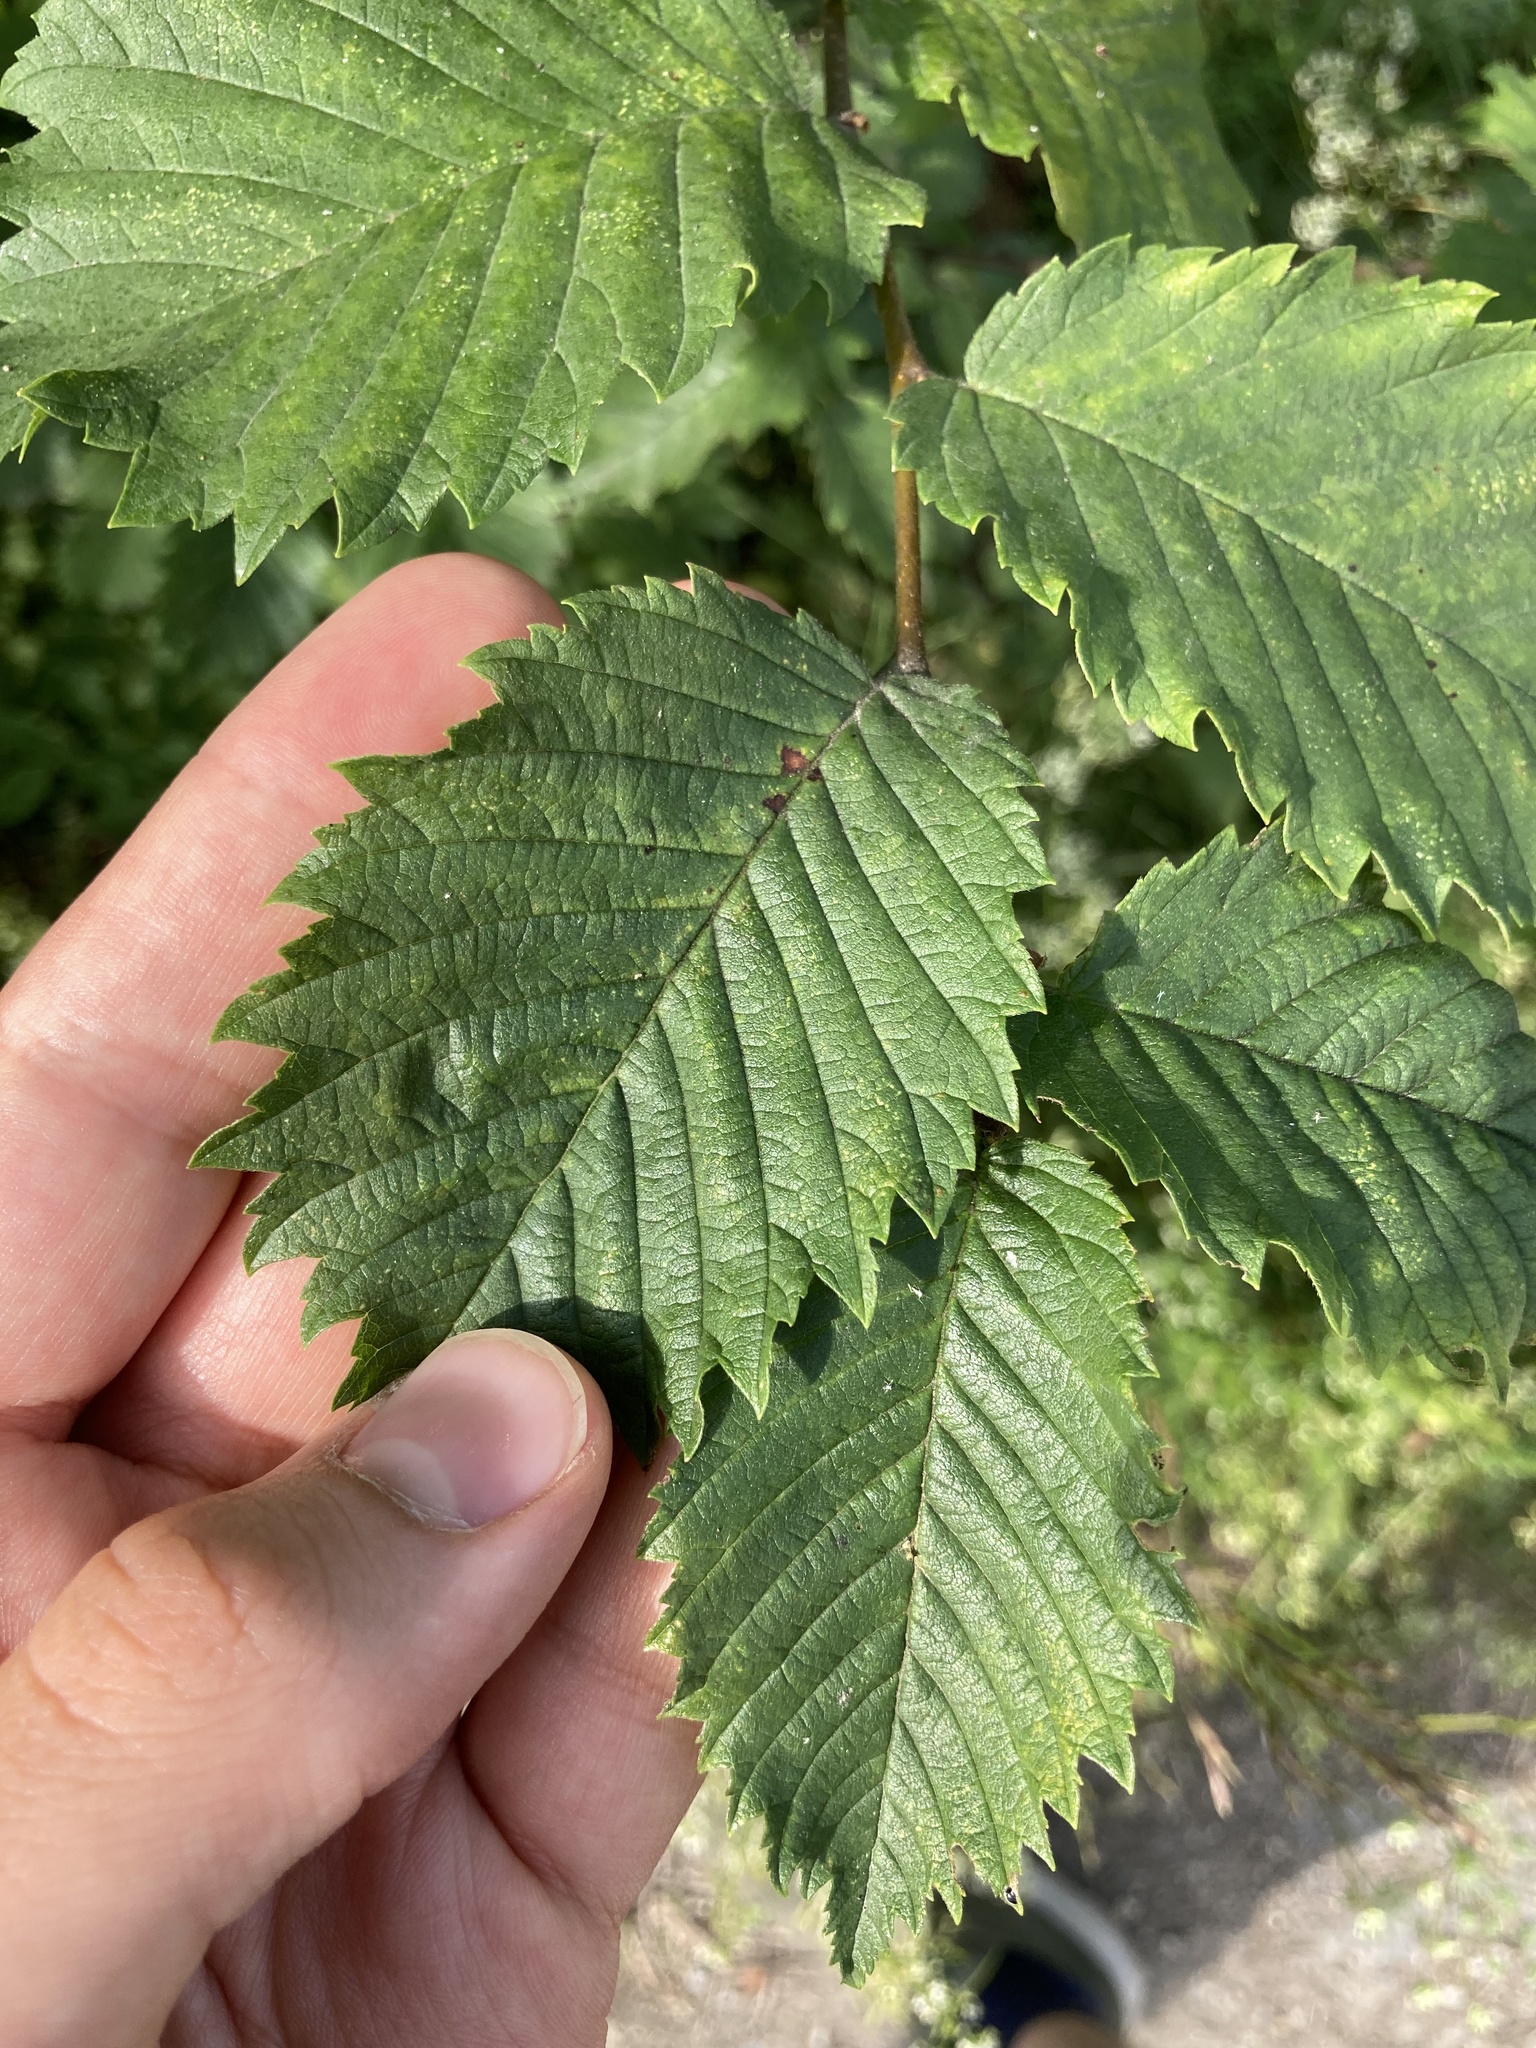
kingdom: Plantae
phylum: Tracheophyta
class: Magnoliopsida
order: Rosales
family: Ulmaceae
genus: Ulmus
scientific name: Ulmus laevis
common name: European white-elm
